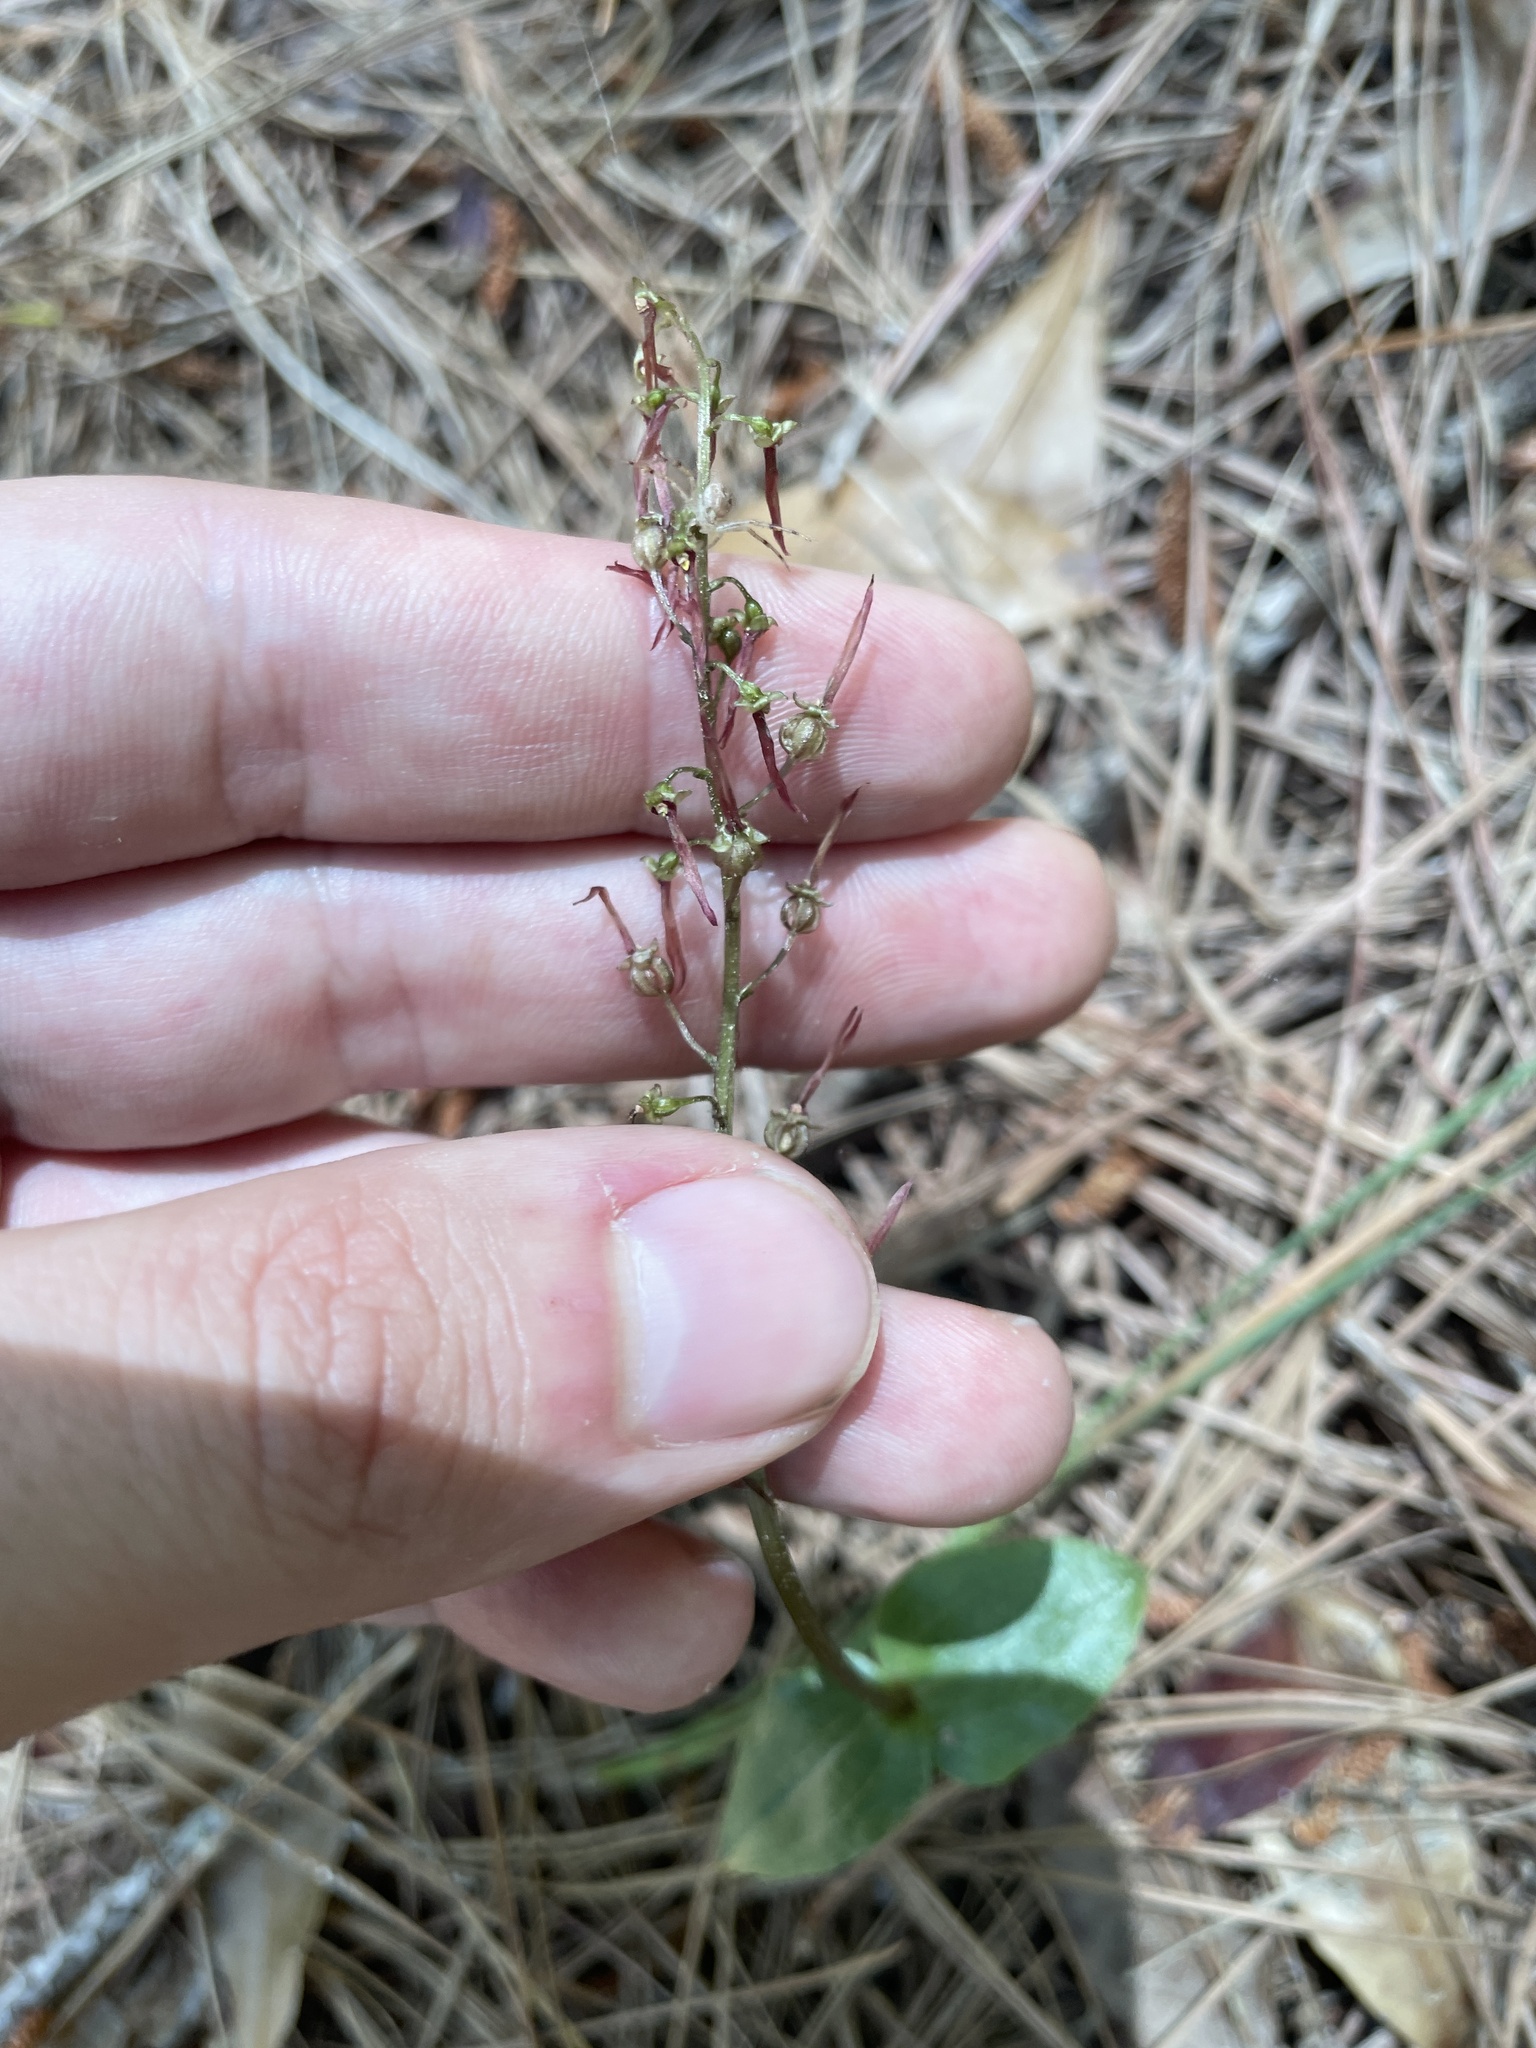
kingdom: Plantae
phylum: Tracheophyta
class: Liliopsida
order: Asparagales
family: Orchidaceae
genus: Neottia
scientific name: Neottia bifolia
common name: Southern twayblade
